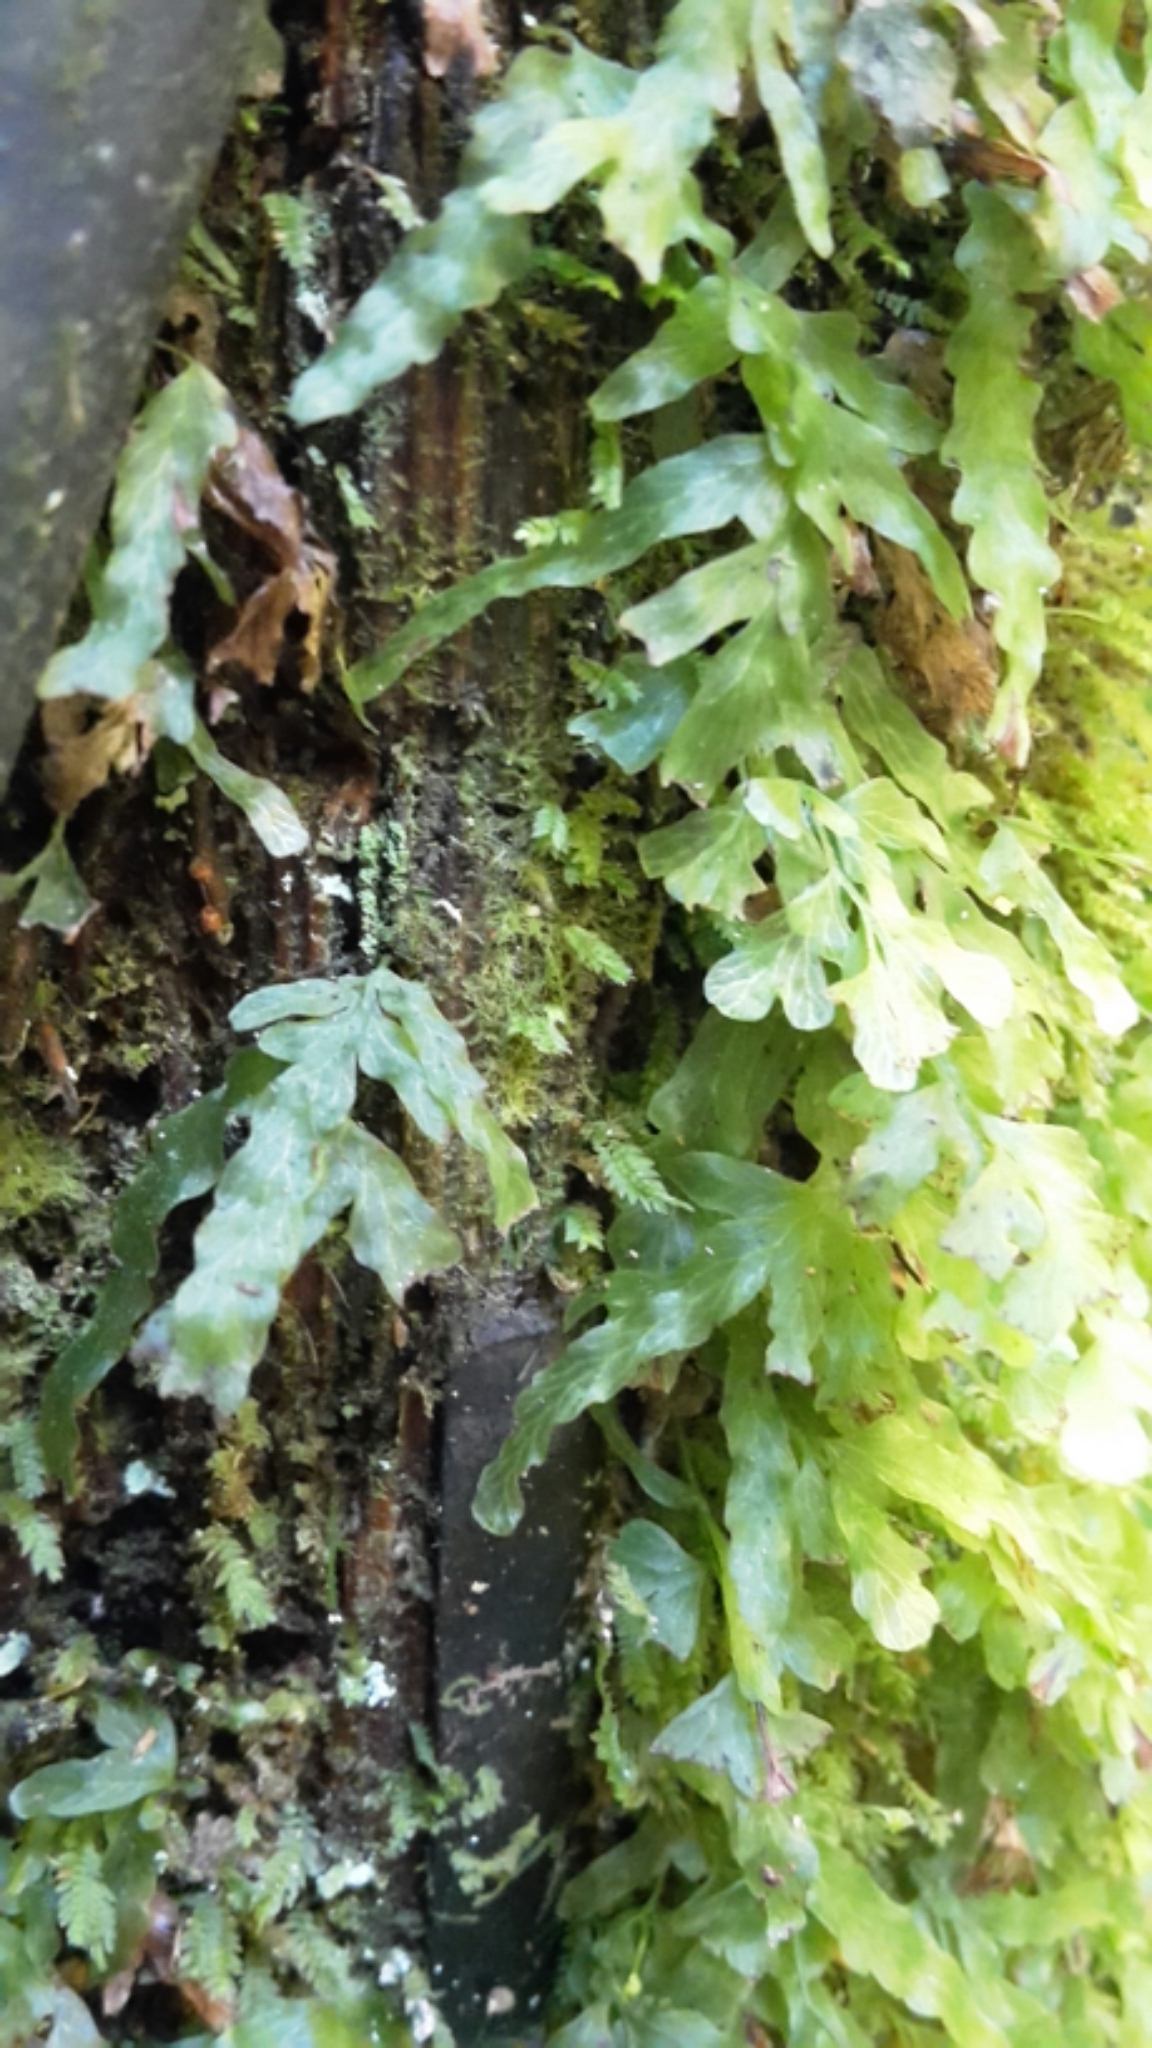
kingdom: Plantae
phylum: Tracheophyta
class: Polypodiopsida
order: Hymenophyllales
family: Hymenophyllaceae
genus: Polyphlebium
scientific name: Polyphlebium venosum
